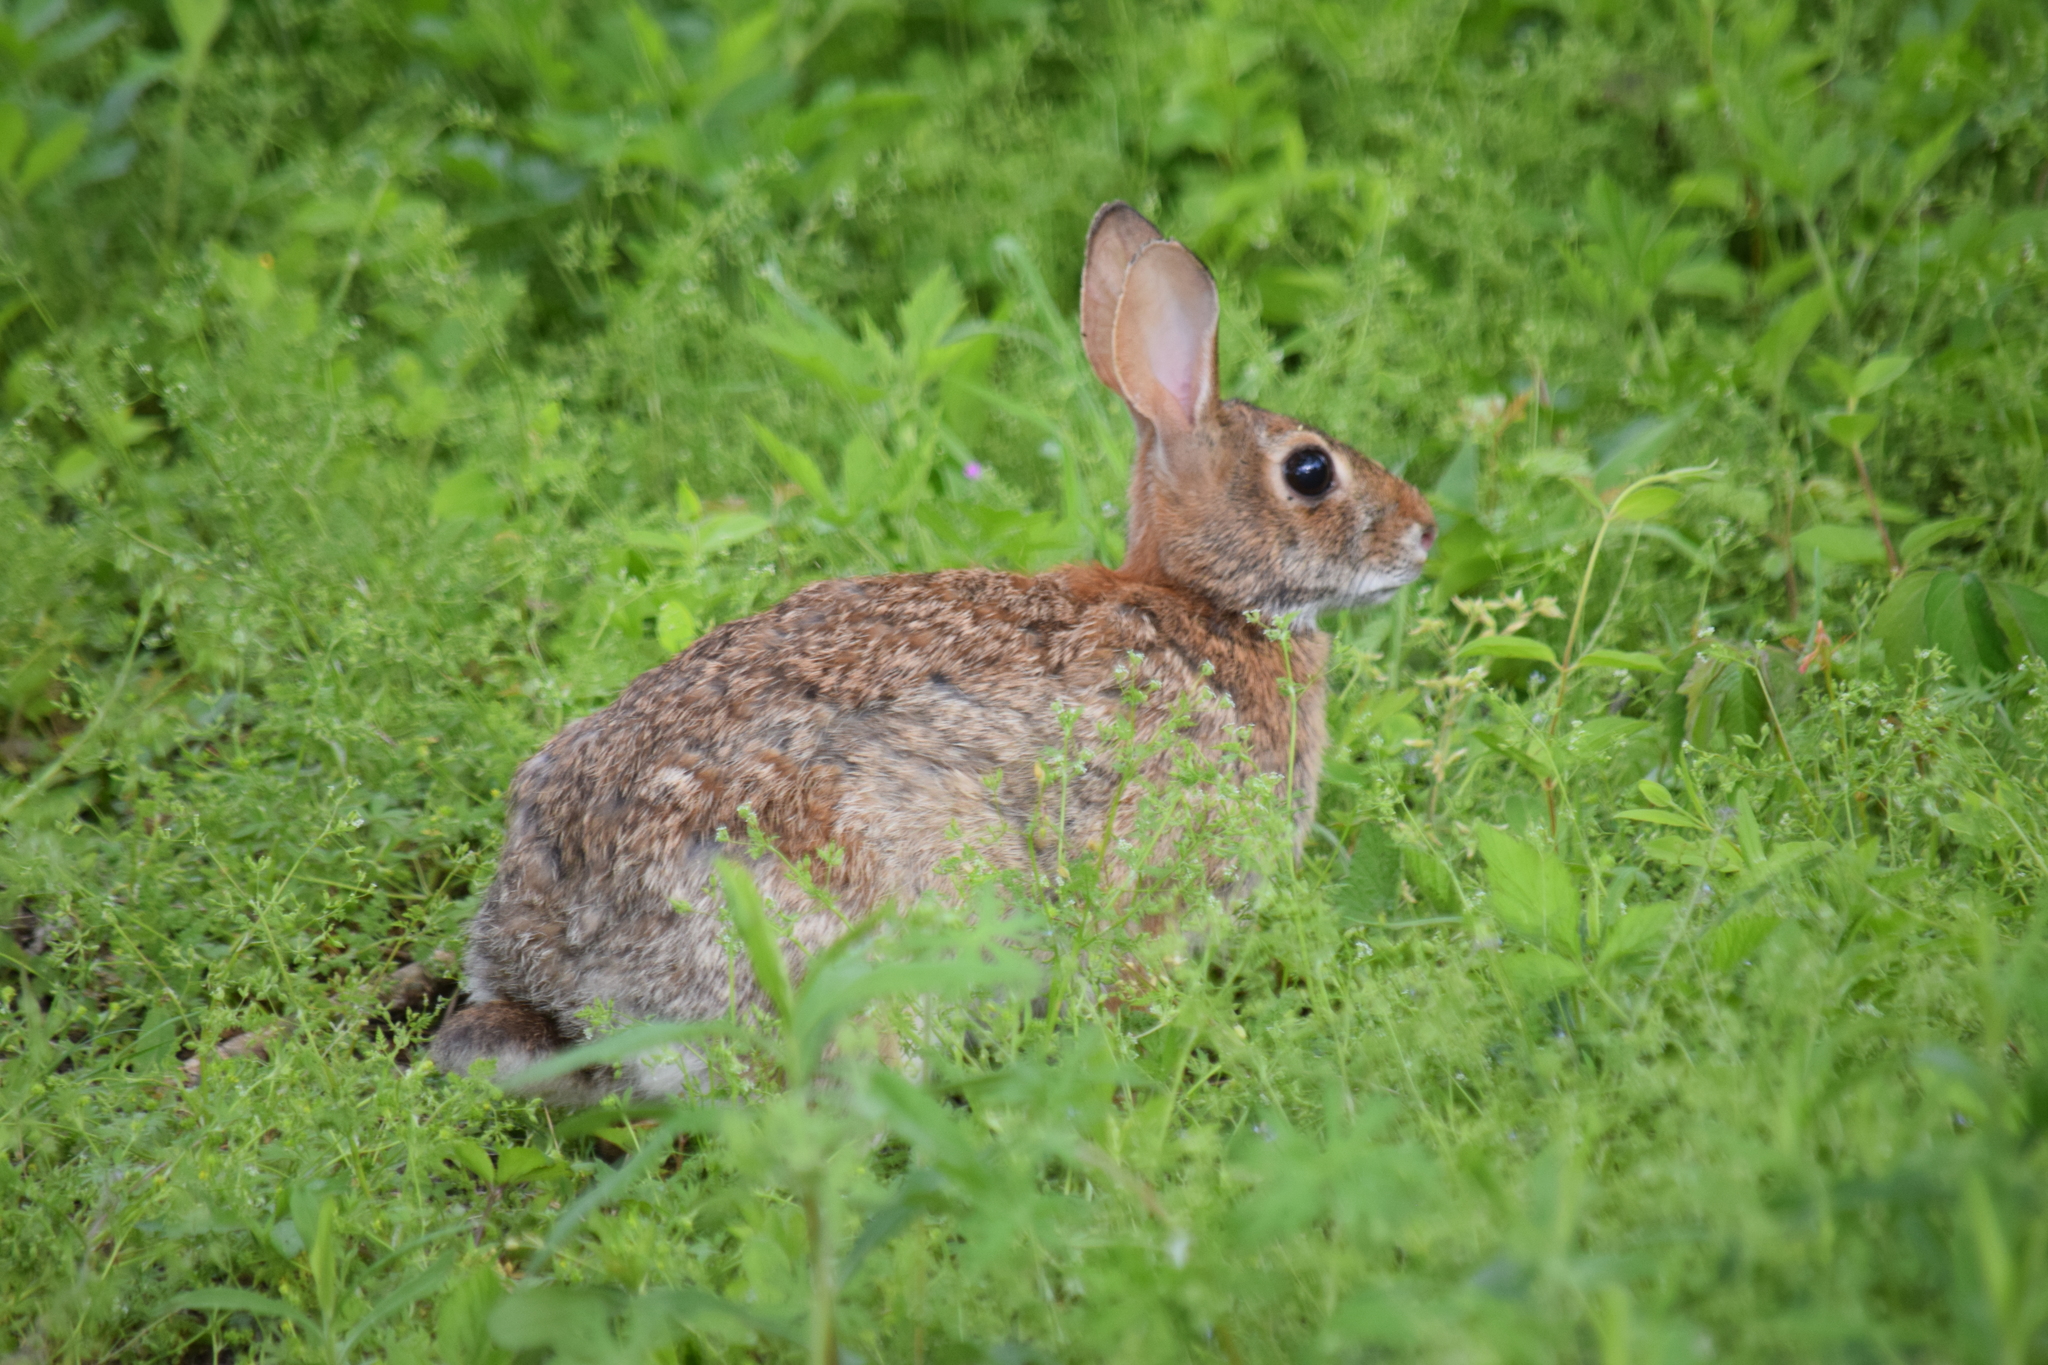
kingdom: Animalia
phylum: Chordata
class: Mammalia
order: Lagomorpha
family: Leporidae
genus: Sylvilagus
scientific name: Sylvilagus floridanus
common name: Eastern cottontail
